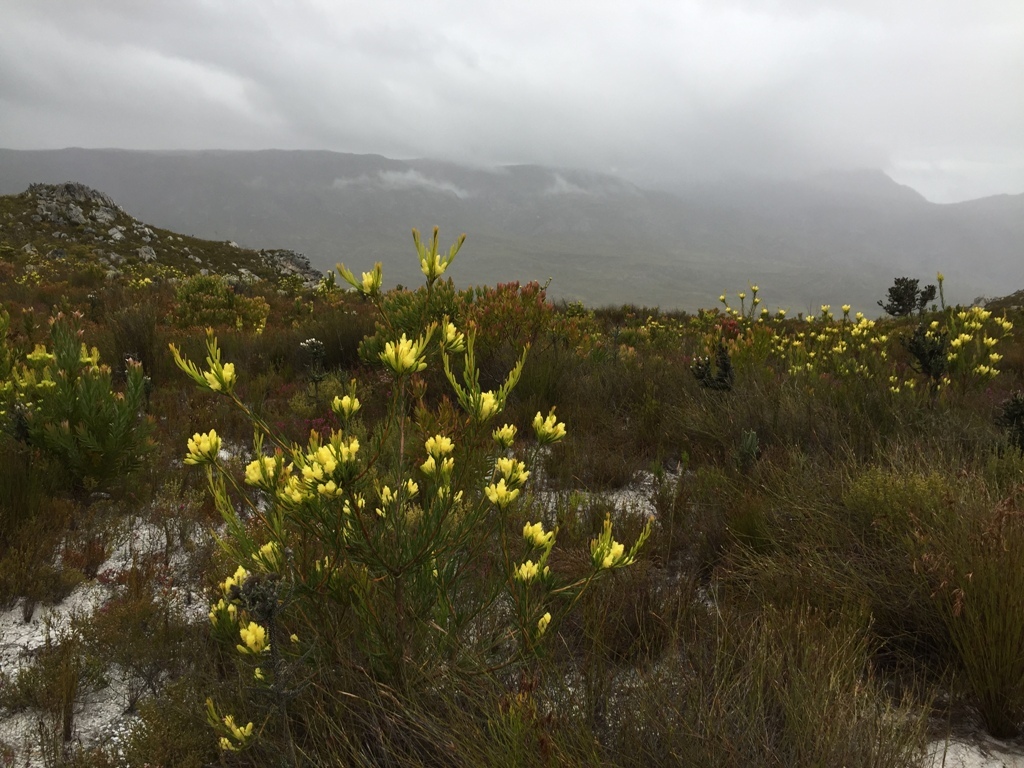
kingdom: Plantae
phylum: Tracheophyta
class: Magnoliopsida
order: Proteales
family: Proteaceae
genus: Aulax
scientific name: Aulax umbellata
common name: Broad-leaf featherbush
